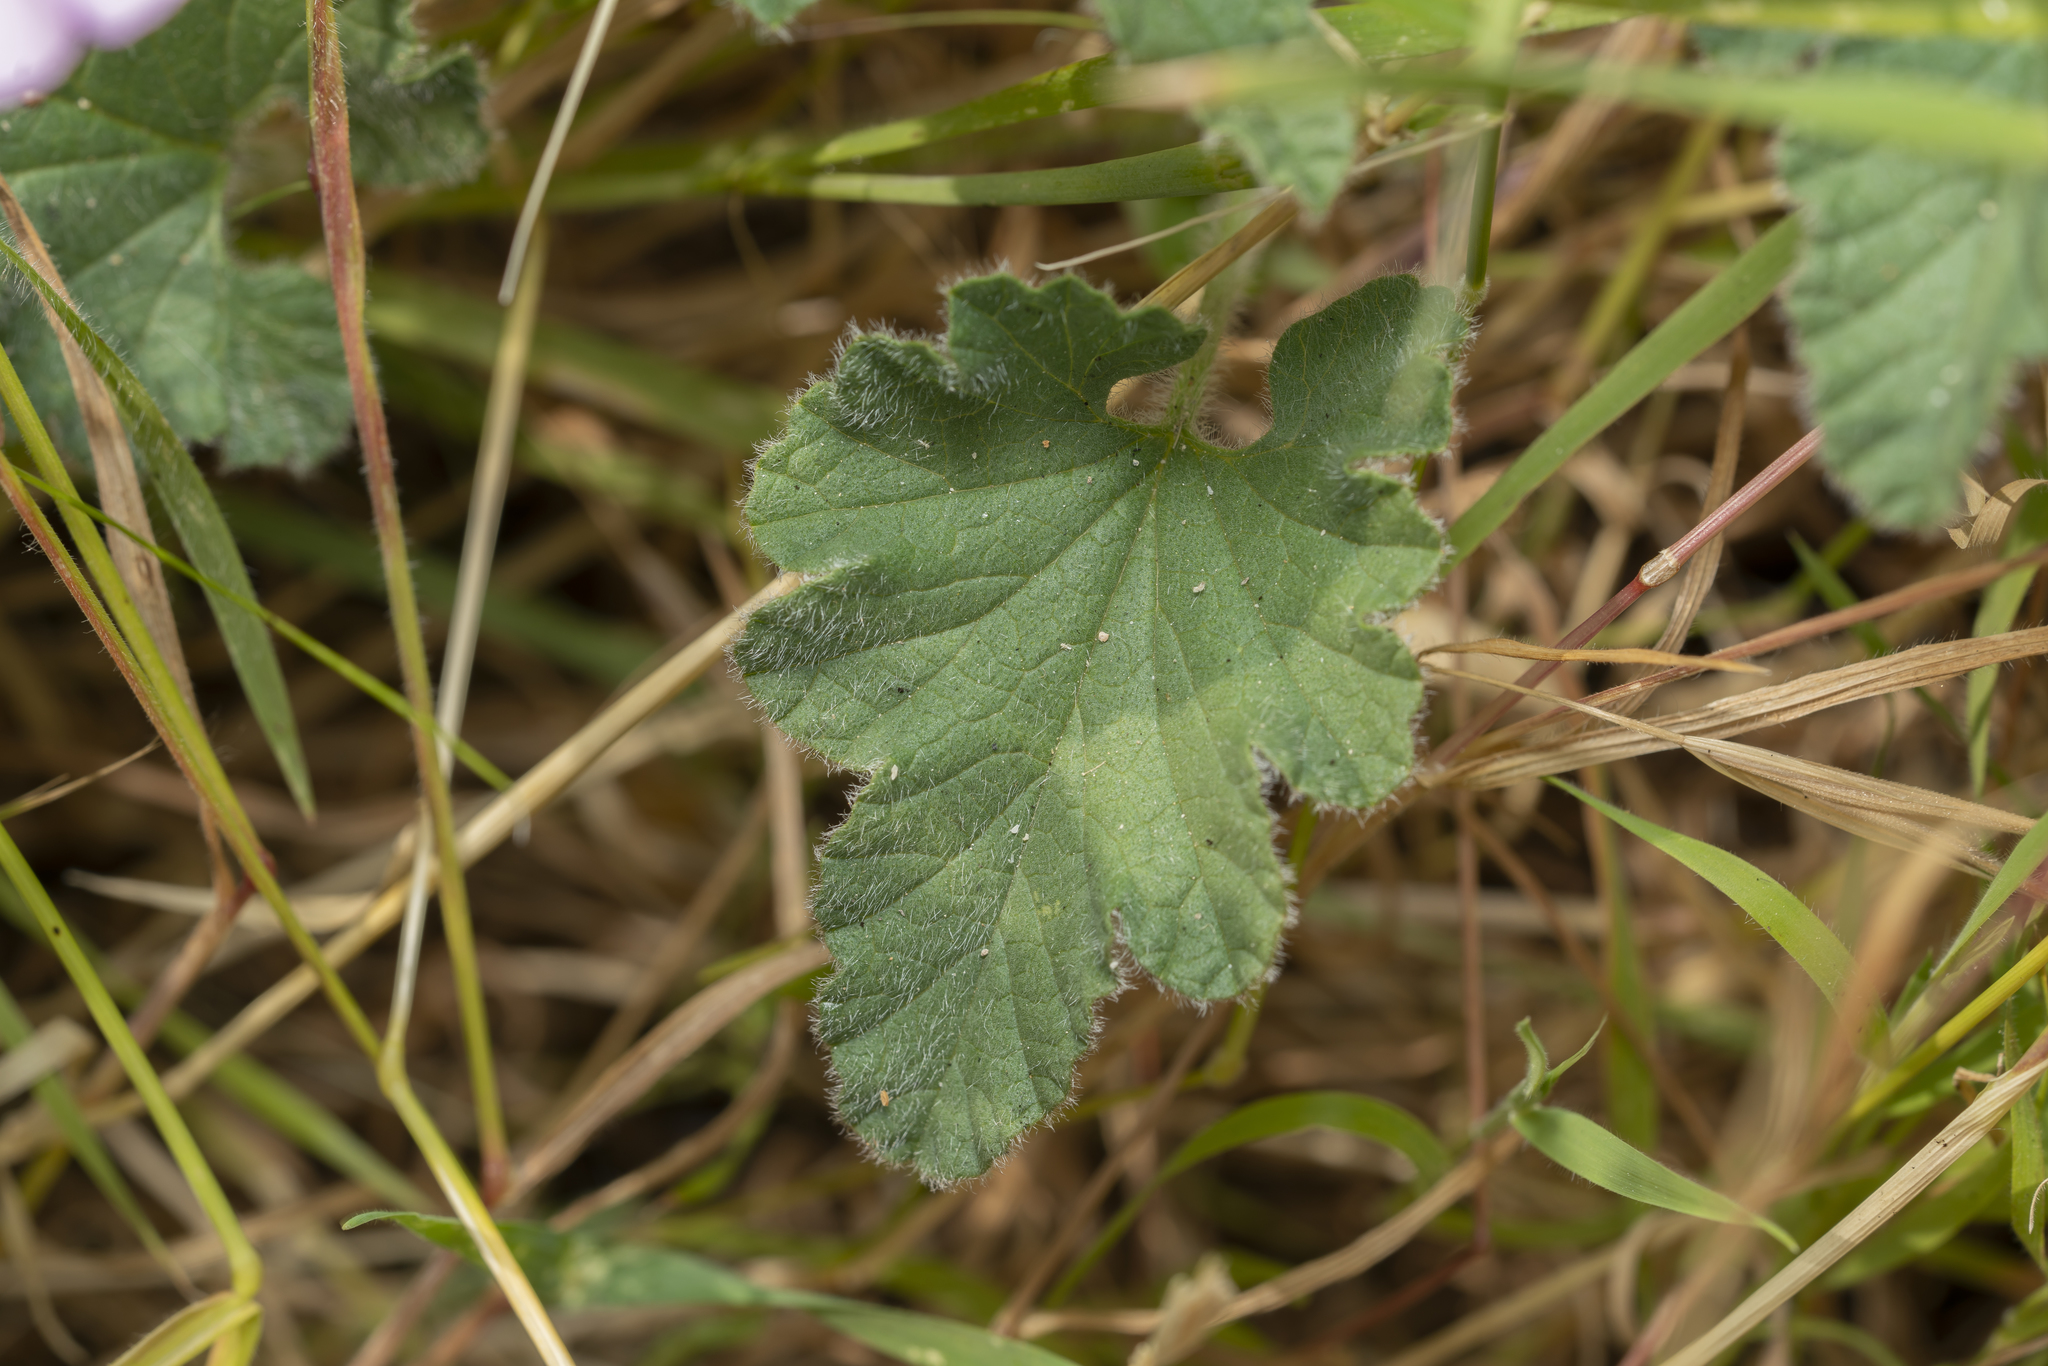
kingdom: Plantae
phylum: Tracheophyta
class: Magnoliopsida
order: Solanales
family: Convolvulaceae
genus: Convolvulus
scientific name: Convolvulus althaeoides
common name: Mallow bindweed
